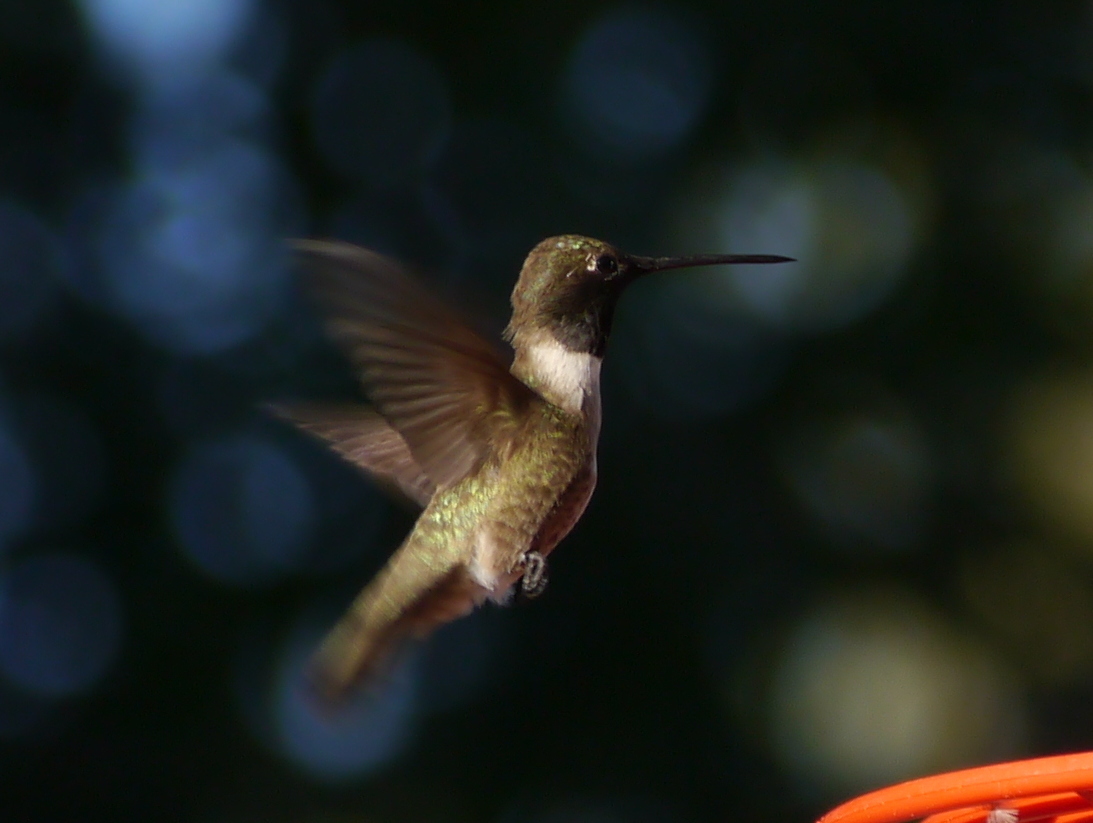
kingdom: Animalia
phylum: Chordata
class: Aves
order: Apodiformes
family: Trochilidae
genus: Archilochus
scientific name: Archilochus alexandri
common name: Black-chinned hummingbird
